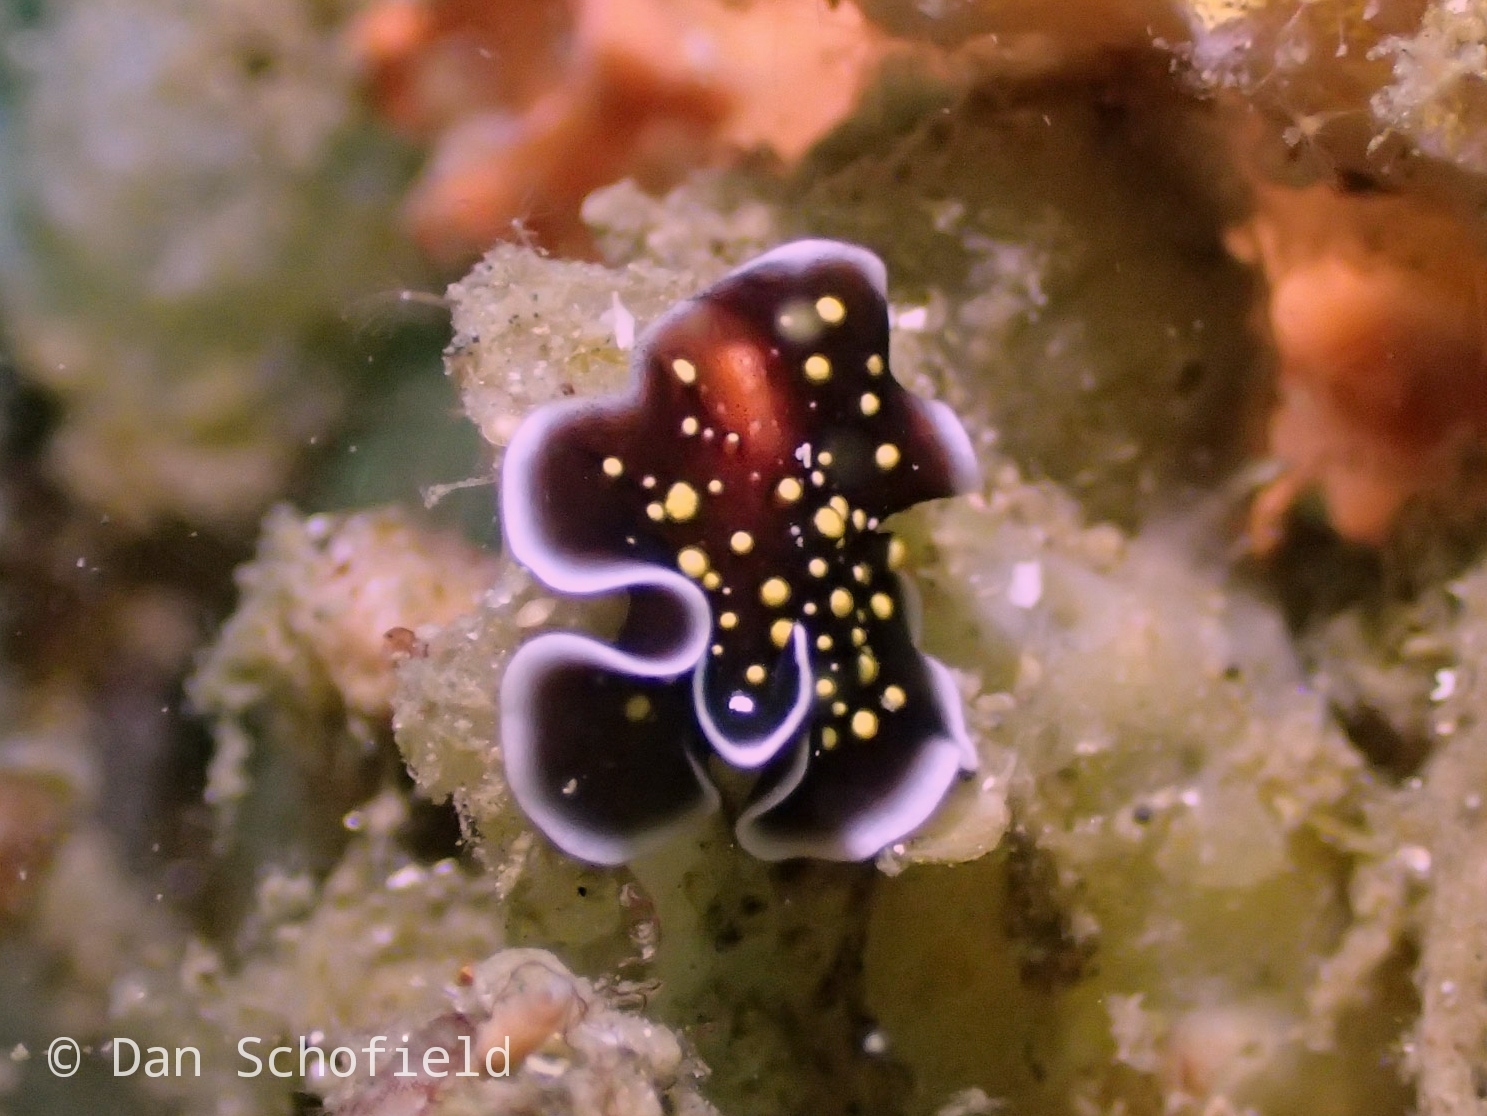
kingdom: Animalia
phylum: Platyhelminthes
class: Turbellaria
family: Pseudocerotidae
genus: Thysanozoon
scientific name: Thysanozoon nigropapillosum
